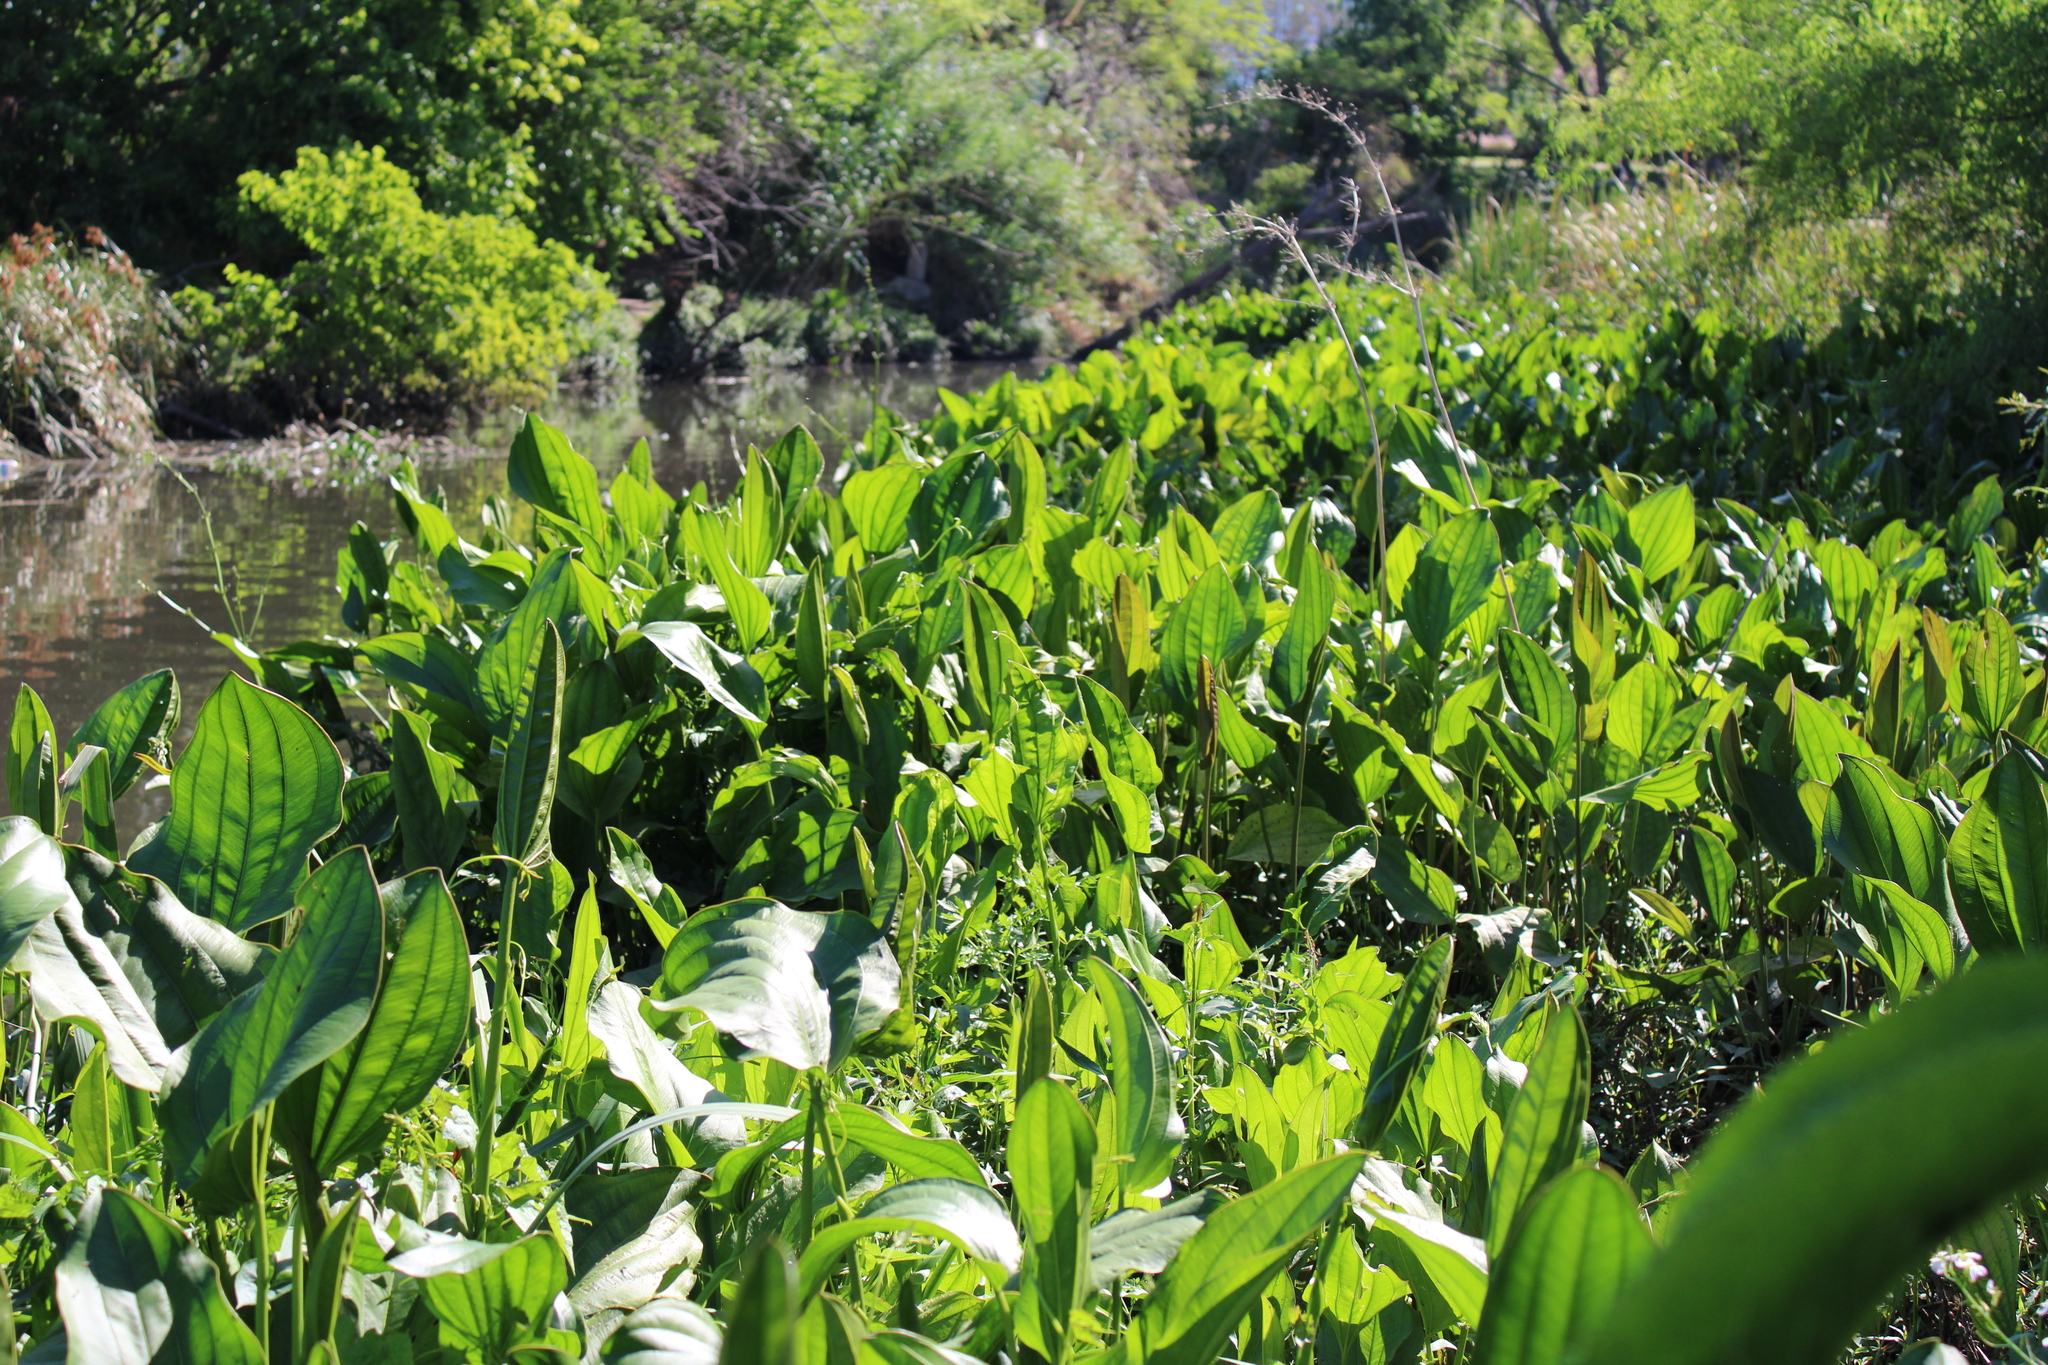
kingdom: Plantae
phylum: Tracheophyta
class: Liliopsida
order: Alismatales
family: Alismataceae
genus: Aquarius
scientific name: Aquarius grandiflorus
